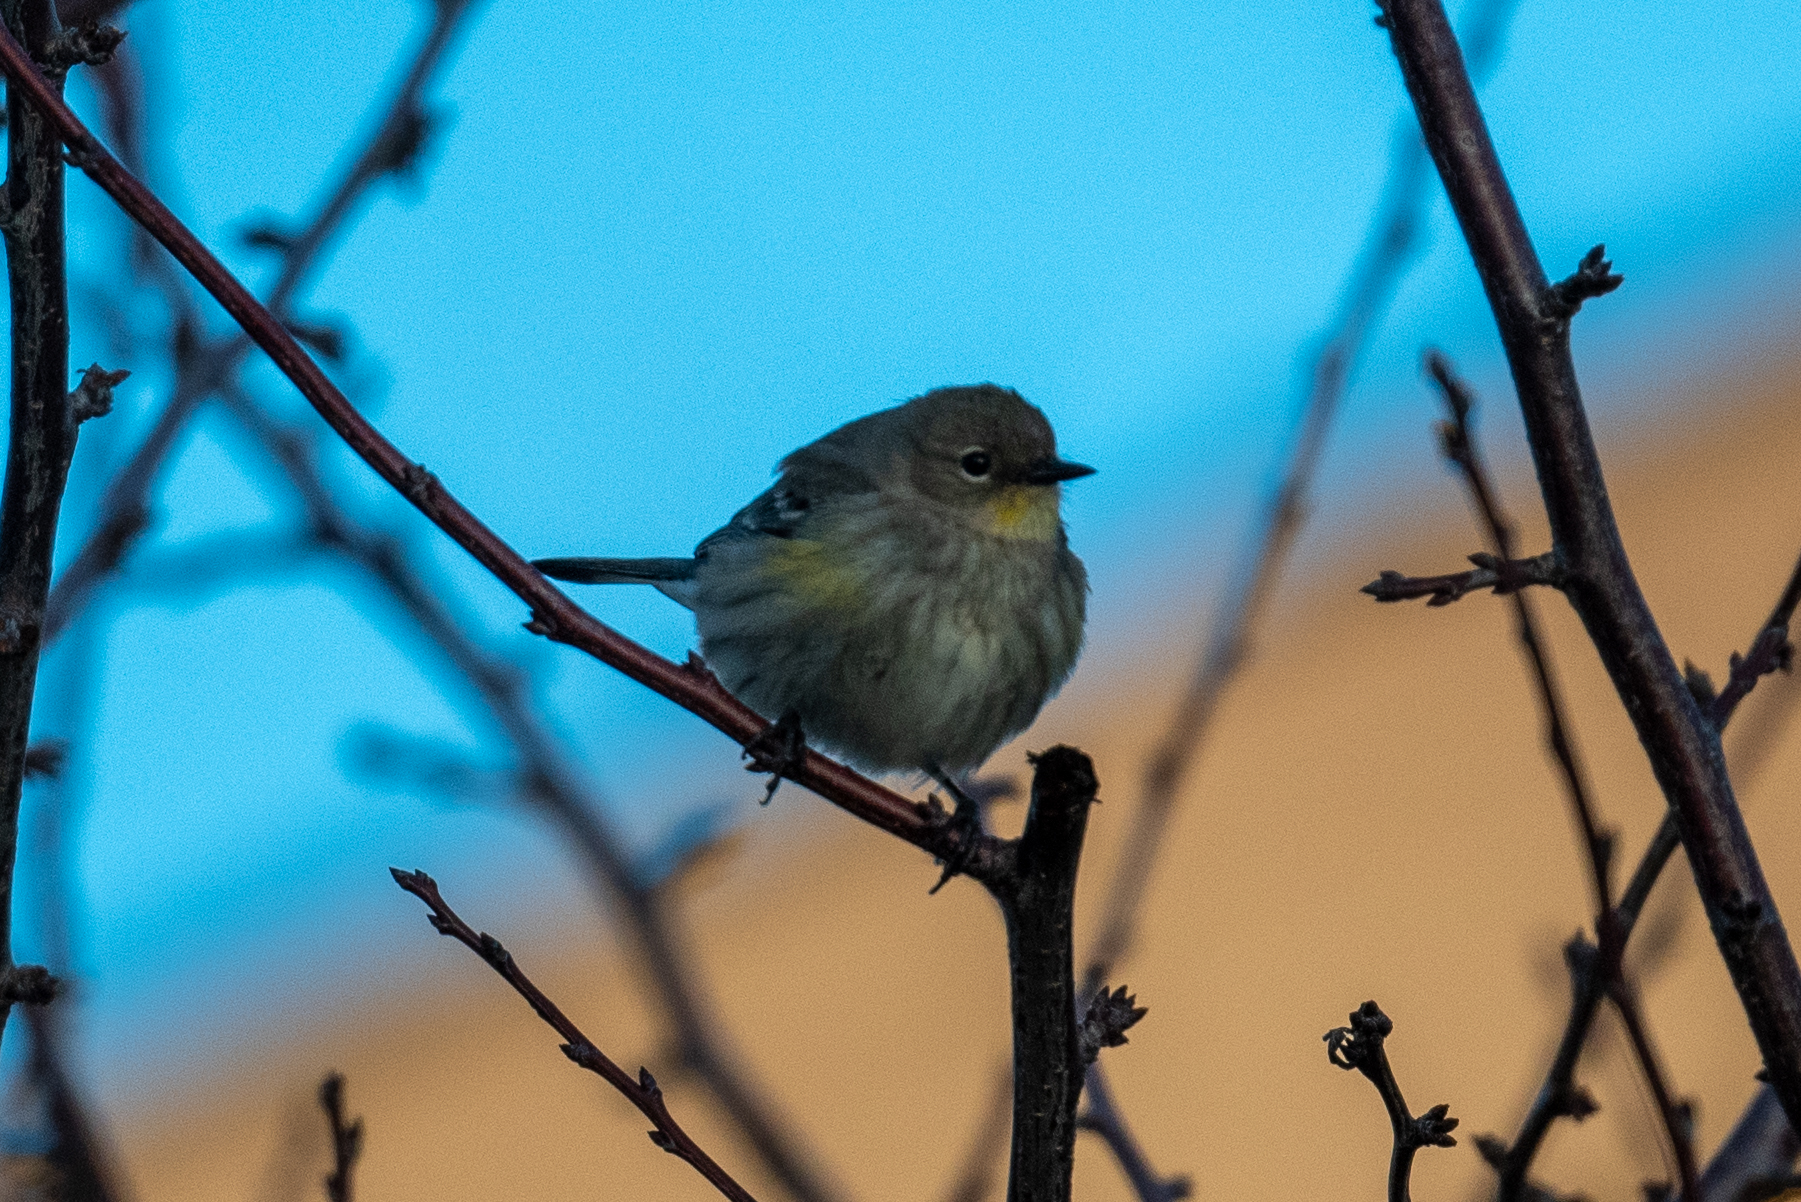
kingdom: Animalia
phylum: Chordata
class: Aves
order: Passeriformes
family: Parulidae
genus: Setophaga
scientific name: Setophaga coronata
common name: Myrtle warbler
